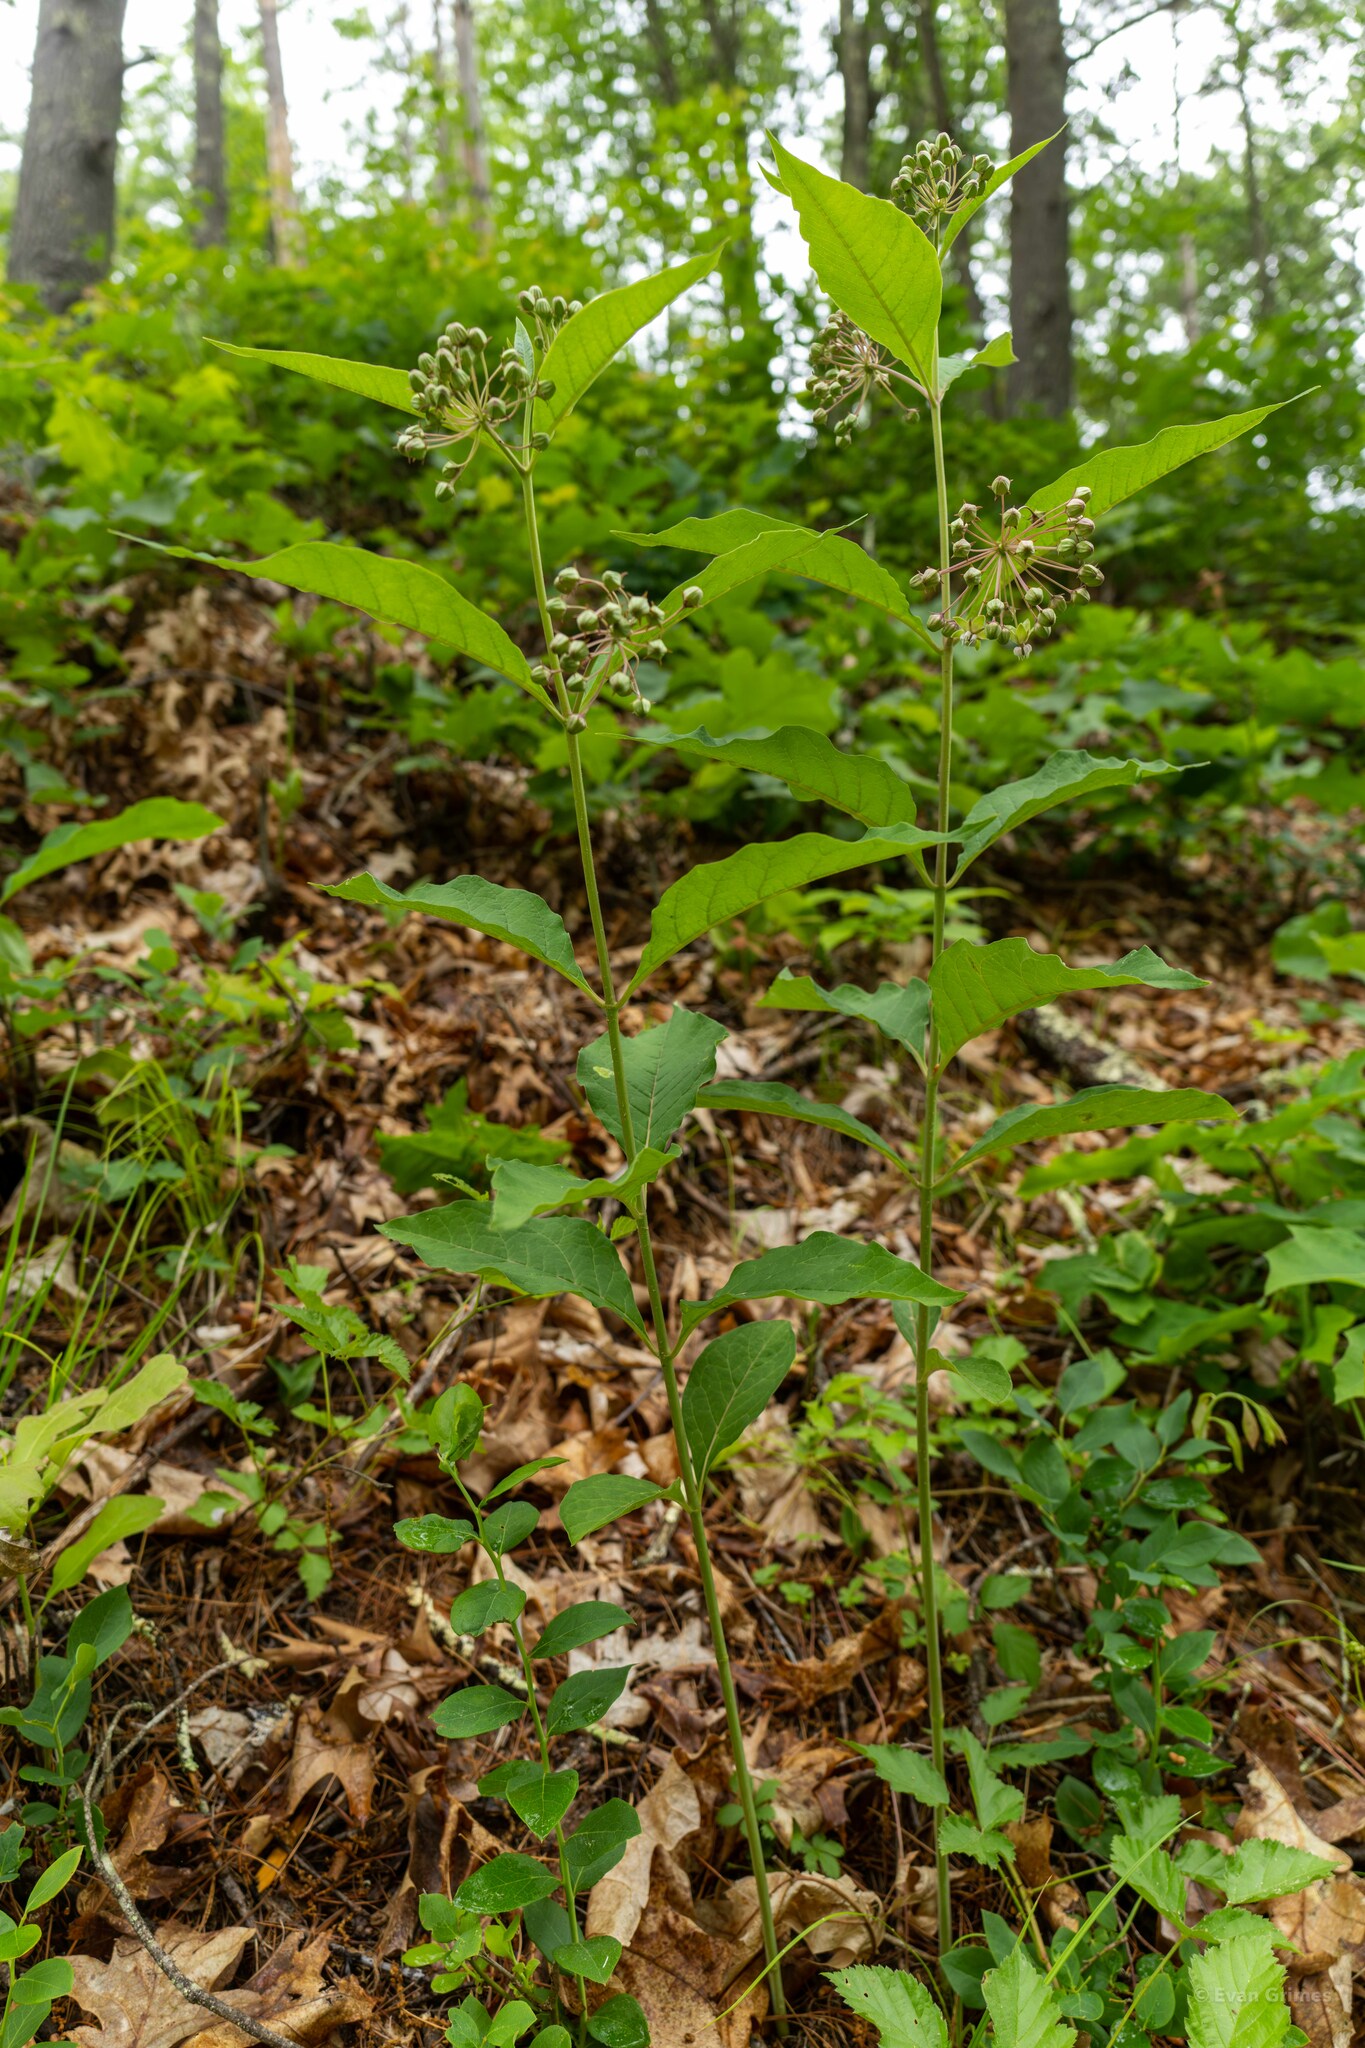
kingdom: Plantae
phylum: Tracheophyta
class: Magnoliopsida
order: Gentianales
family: Apocynaceae
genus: Asclepias
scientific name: Asclepias exaltata
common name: Poke milkweed
